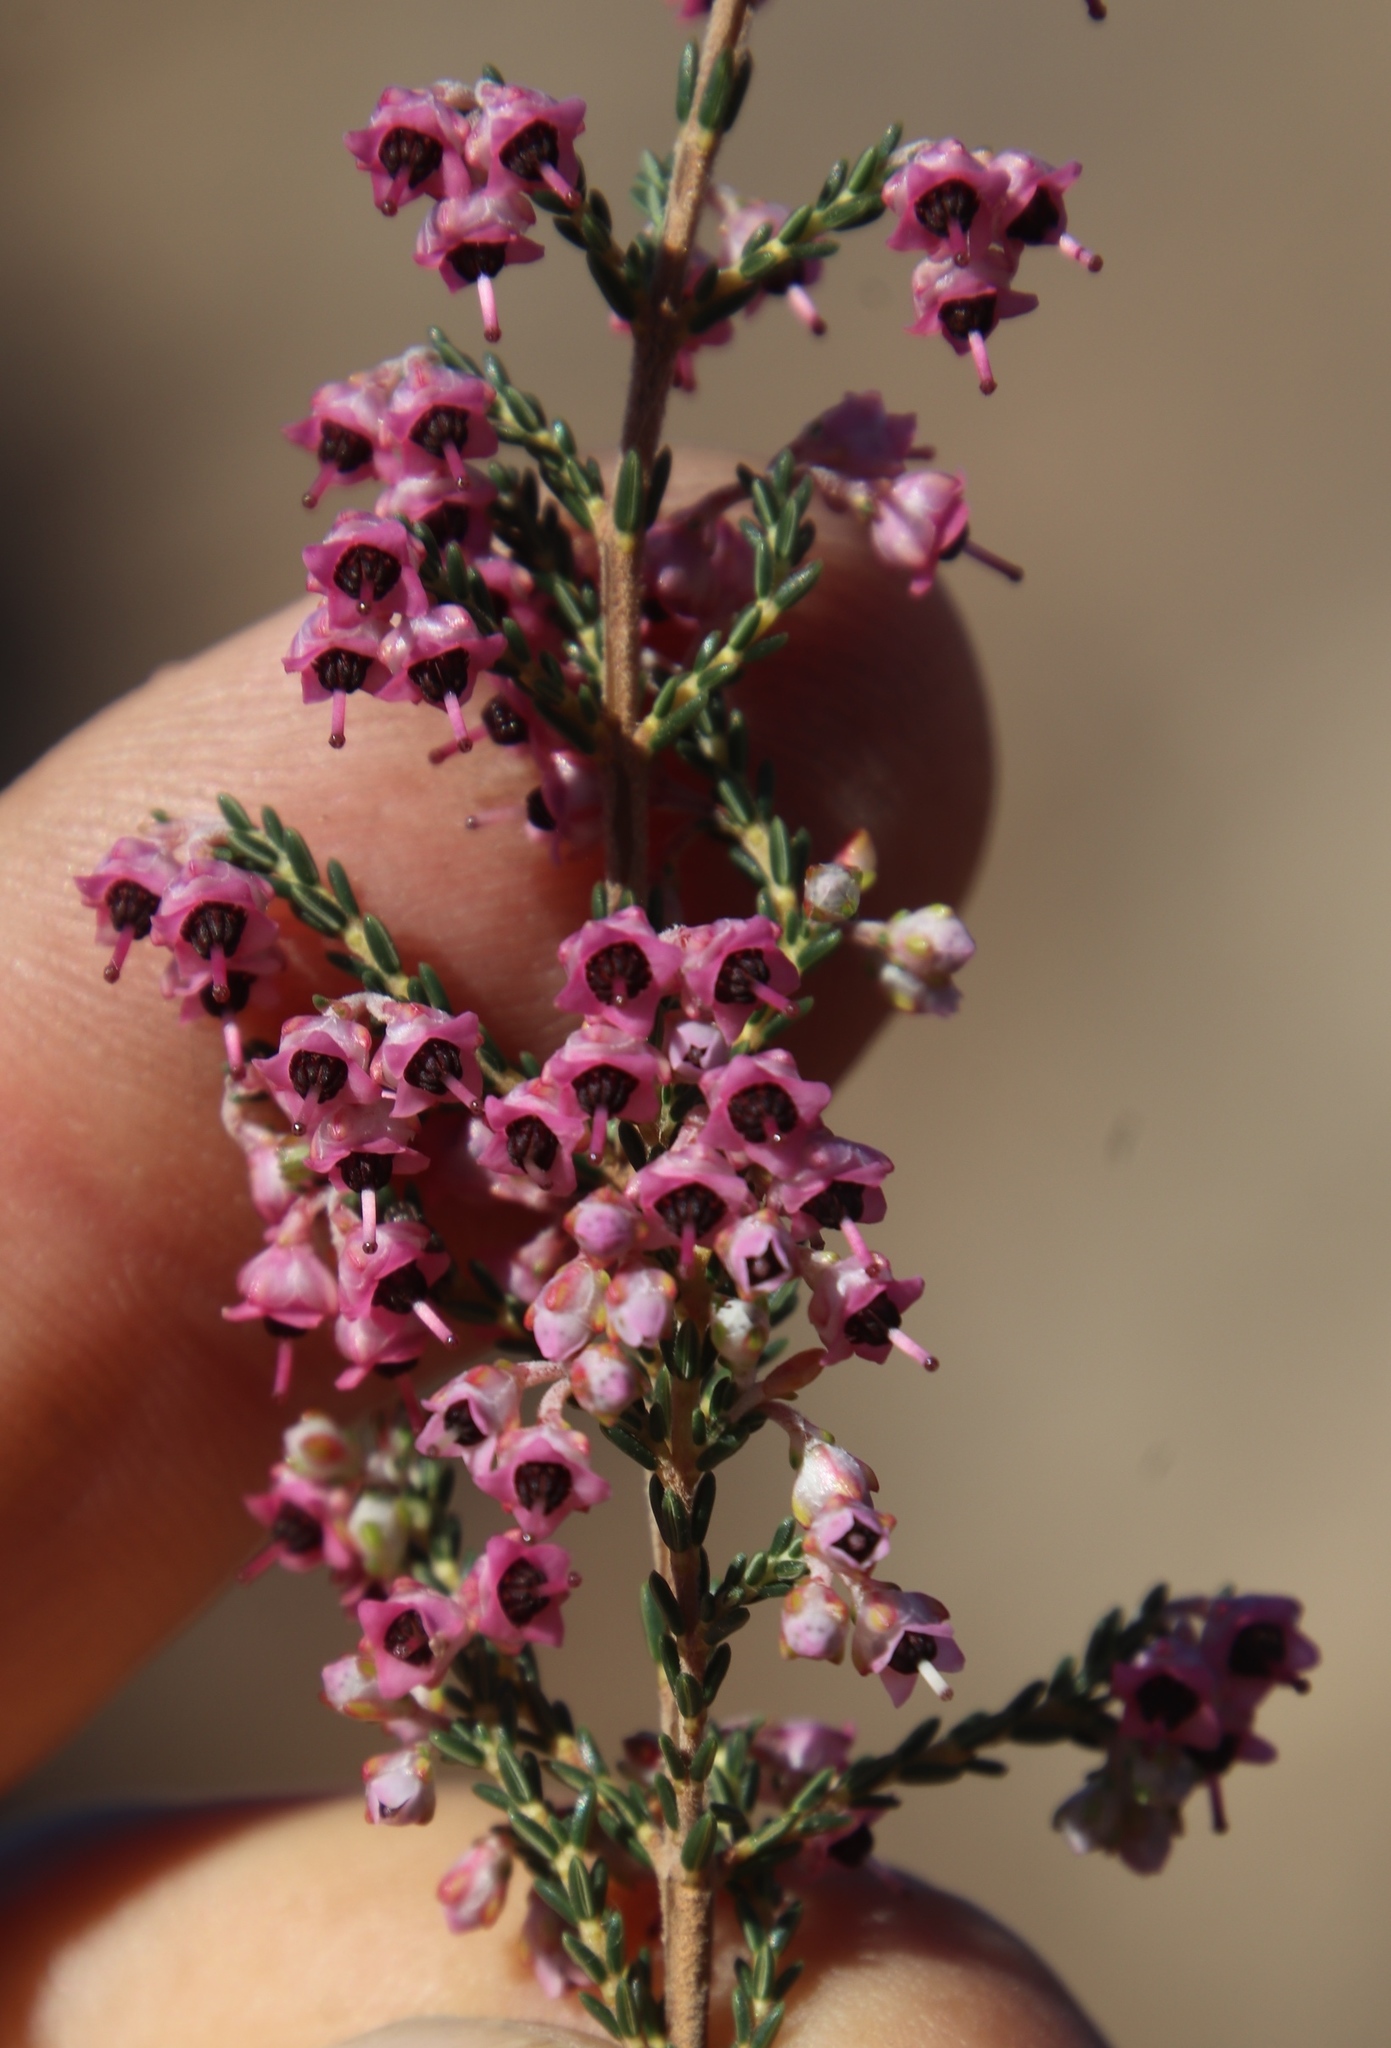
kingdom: Plantae
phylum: Tracheophyta
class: Magnoliopsida
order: Ericales
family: Ericaceae
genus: Erica
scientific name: Erica lucida
